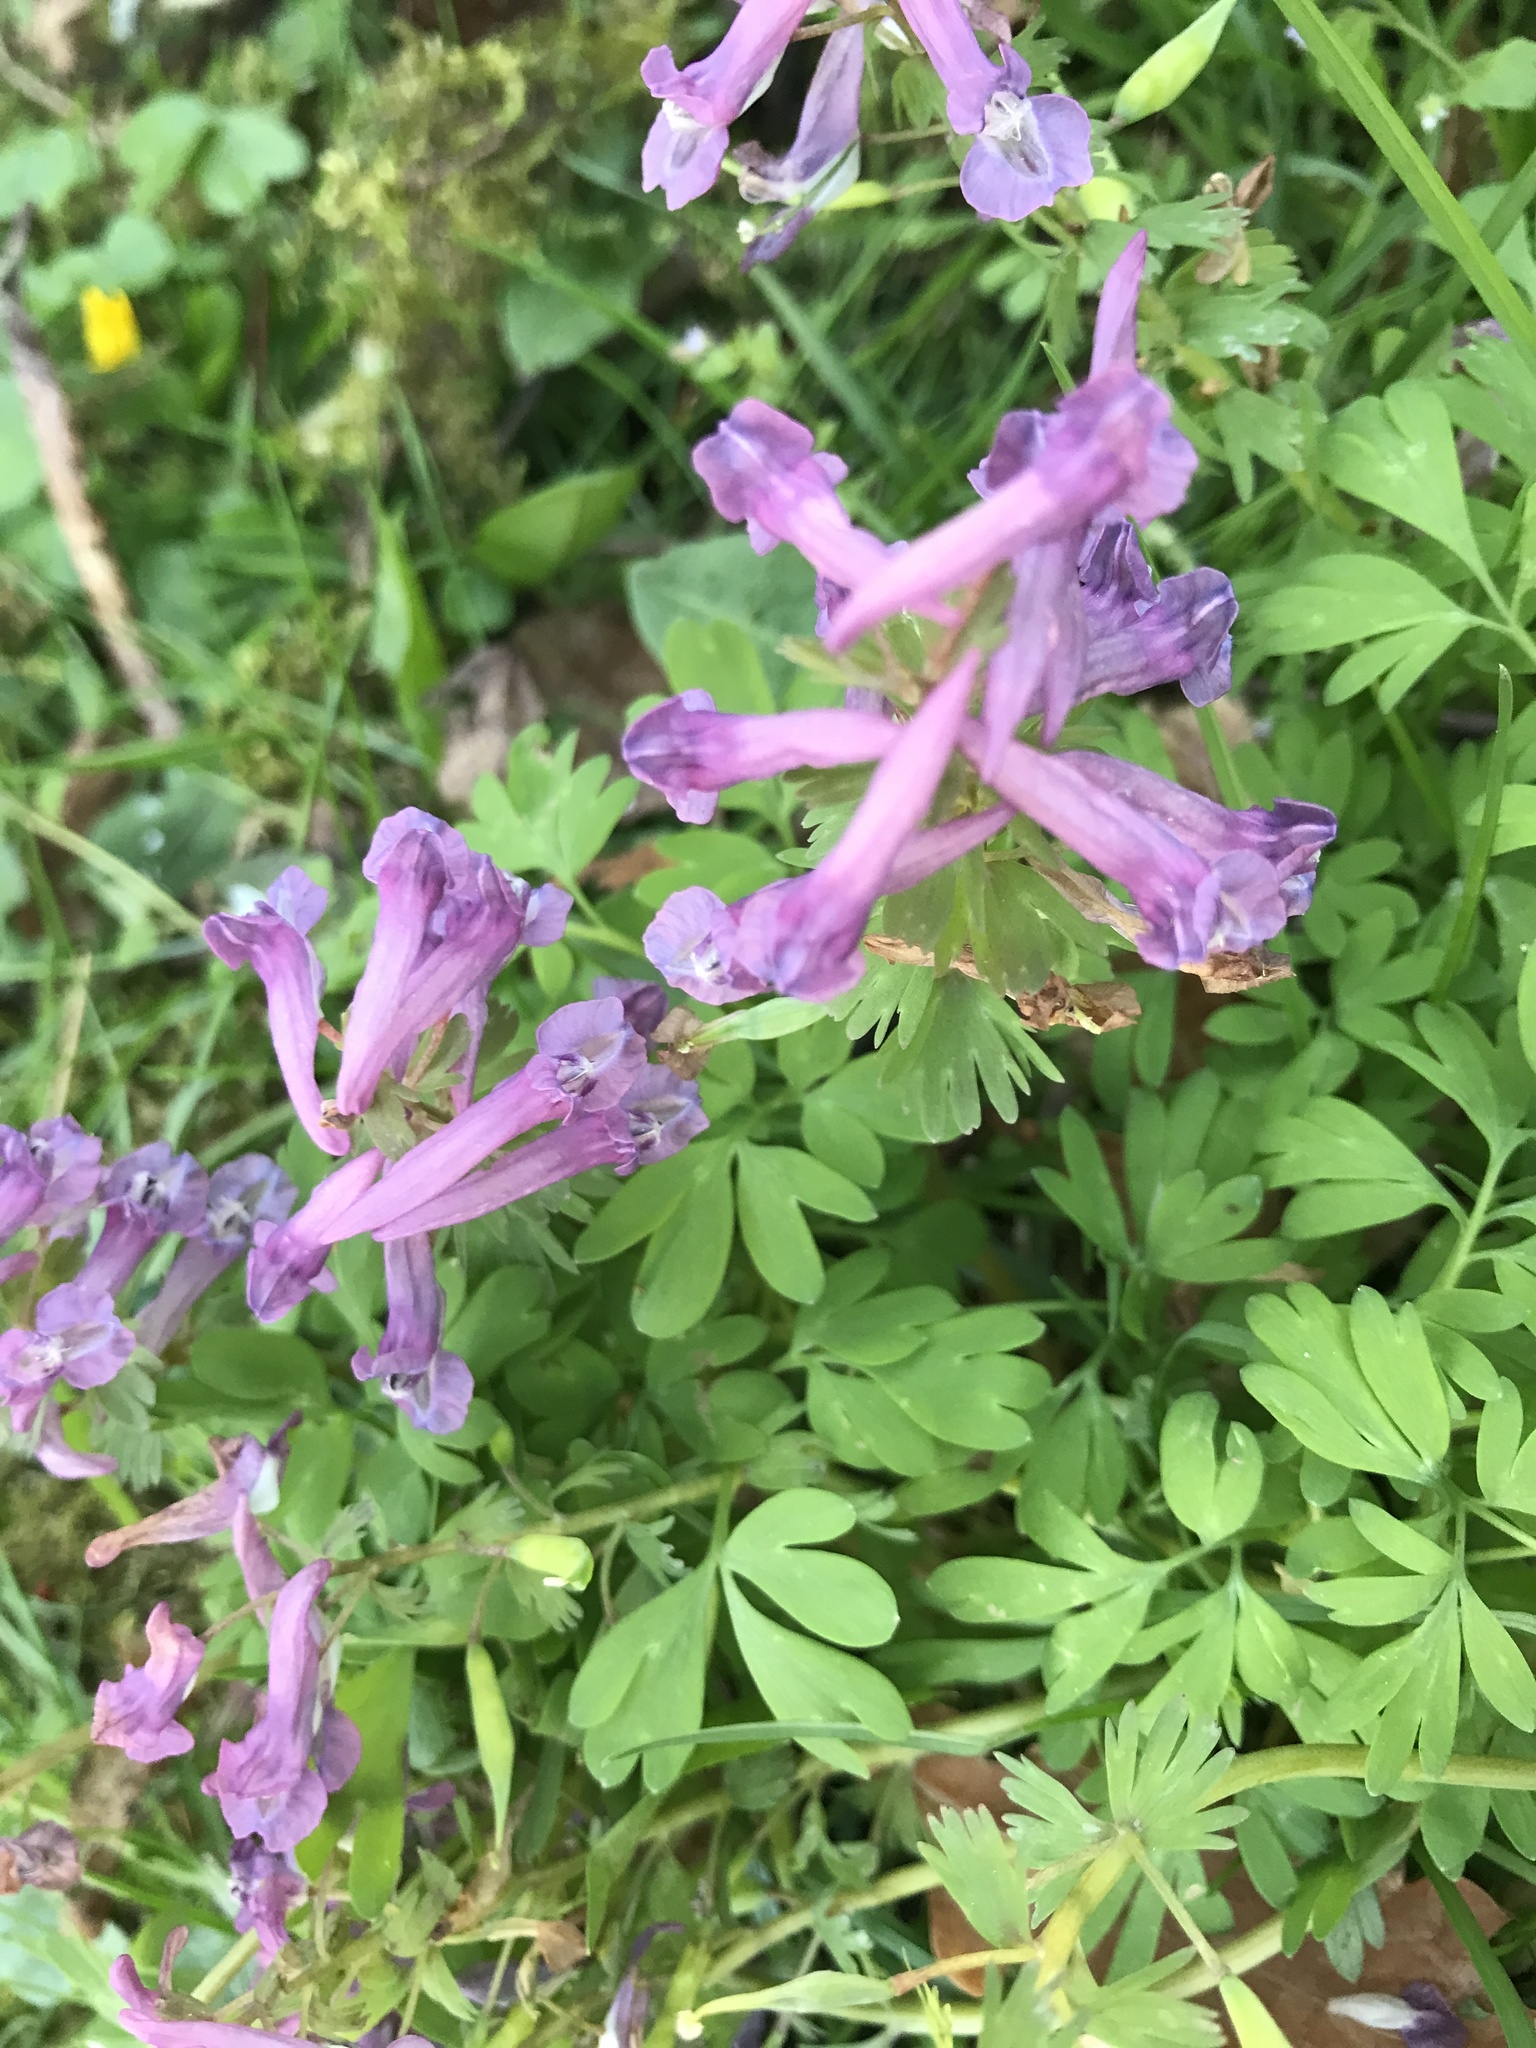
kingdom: Plantae
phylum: Tracheophyta
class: Magnoliopsida
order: Ranunculales
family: Papaveraceae
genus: Corydalis
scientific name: Corydalis solida
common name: Bird-in-a-bush
